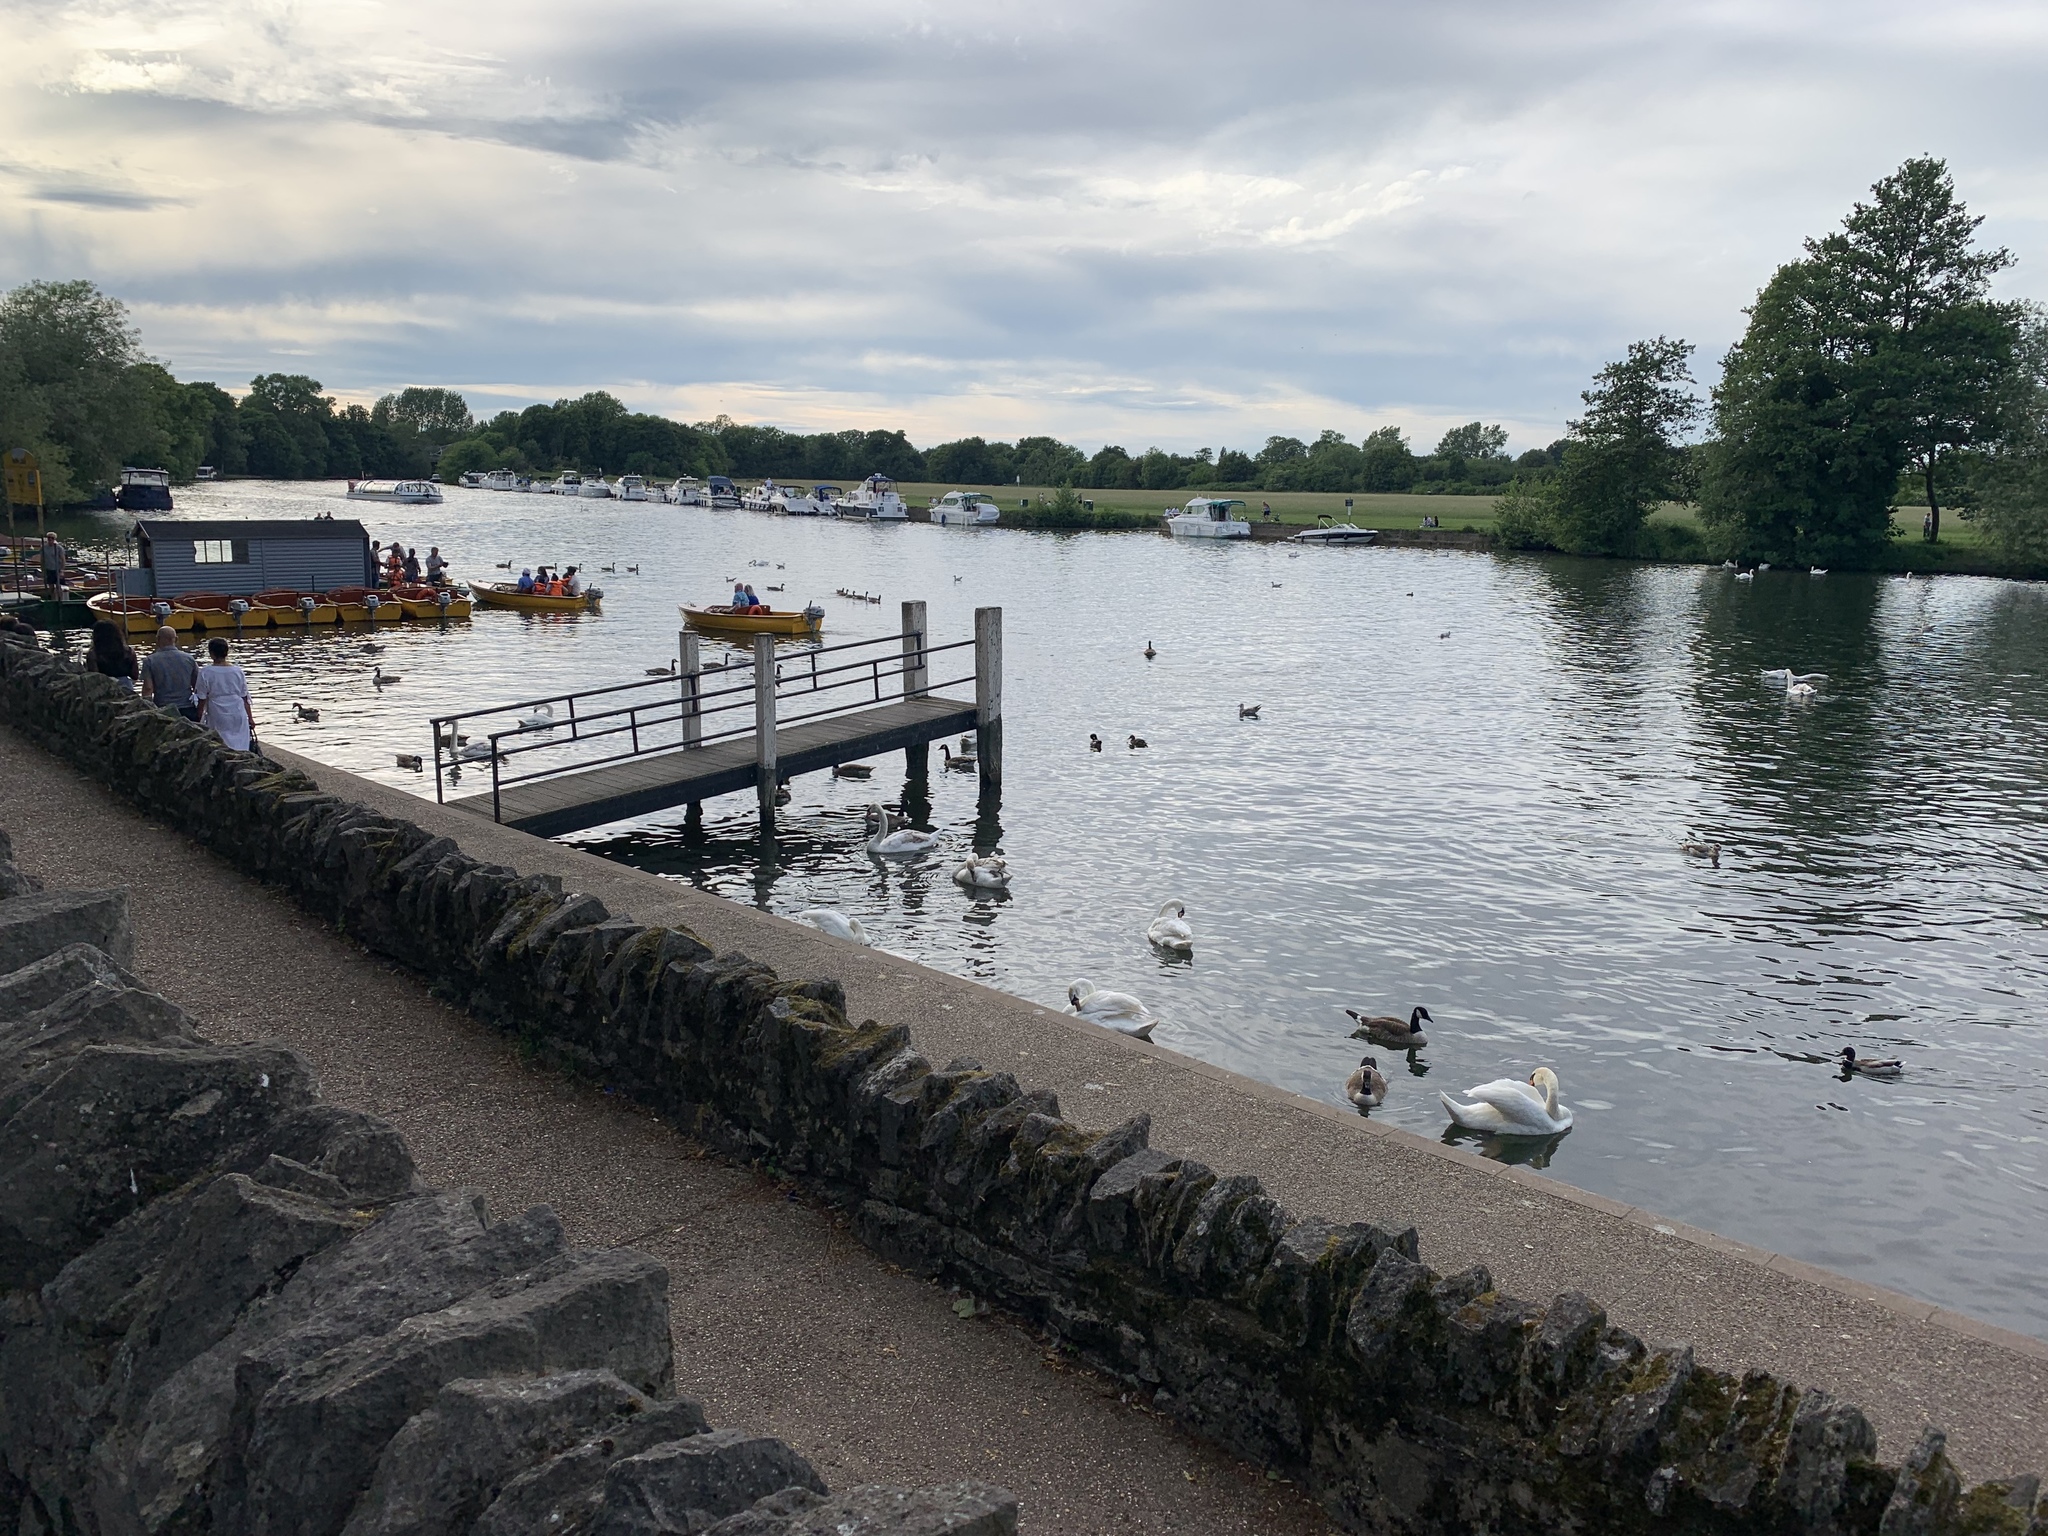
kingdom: Animalia
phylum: Chordata
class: Aves
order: Anseriformes
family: Anatidae
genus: Cygnus
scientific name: Cygnus olor
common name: Mute swan
